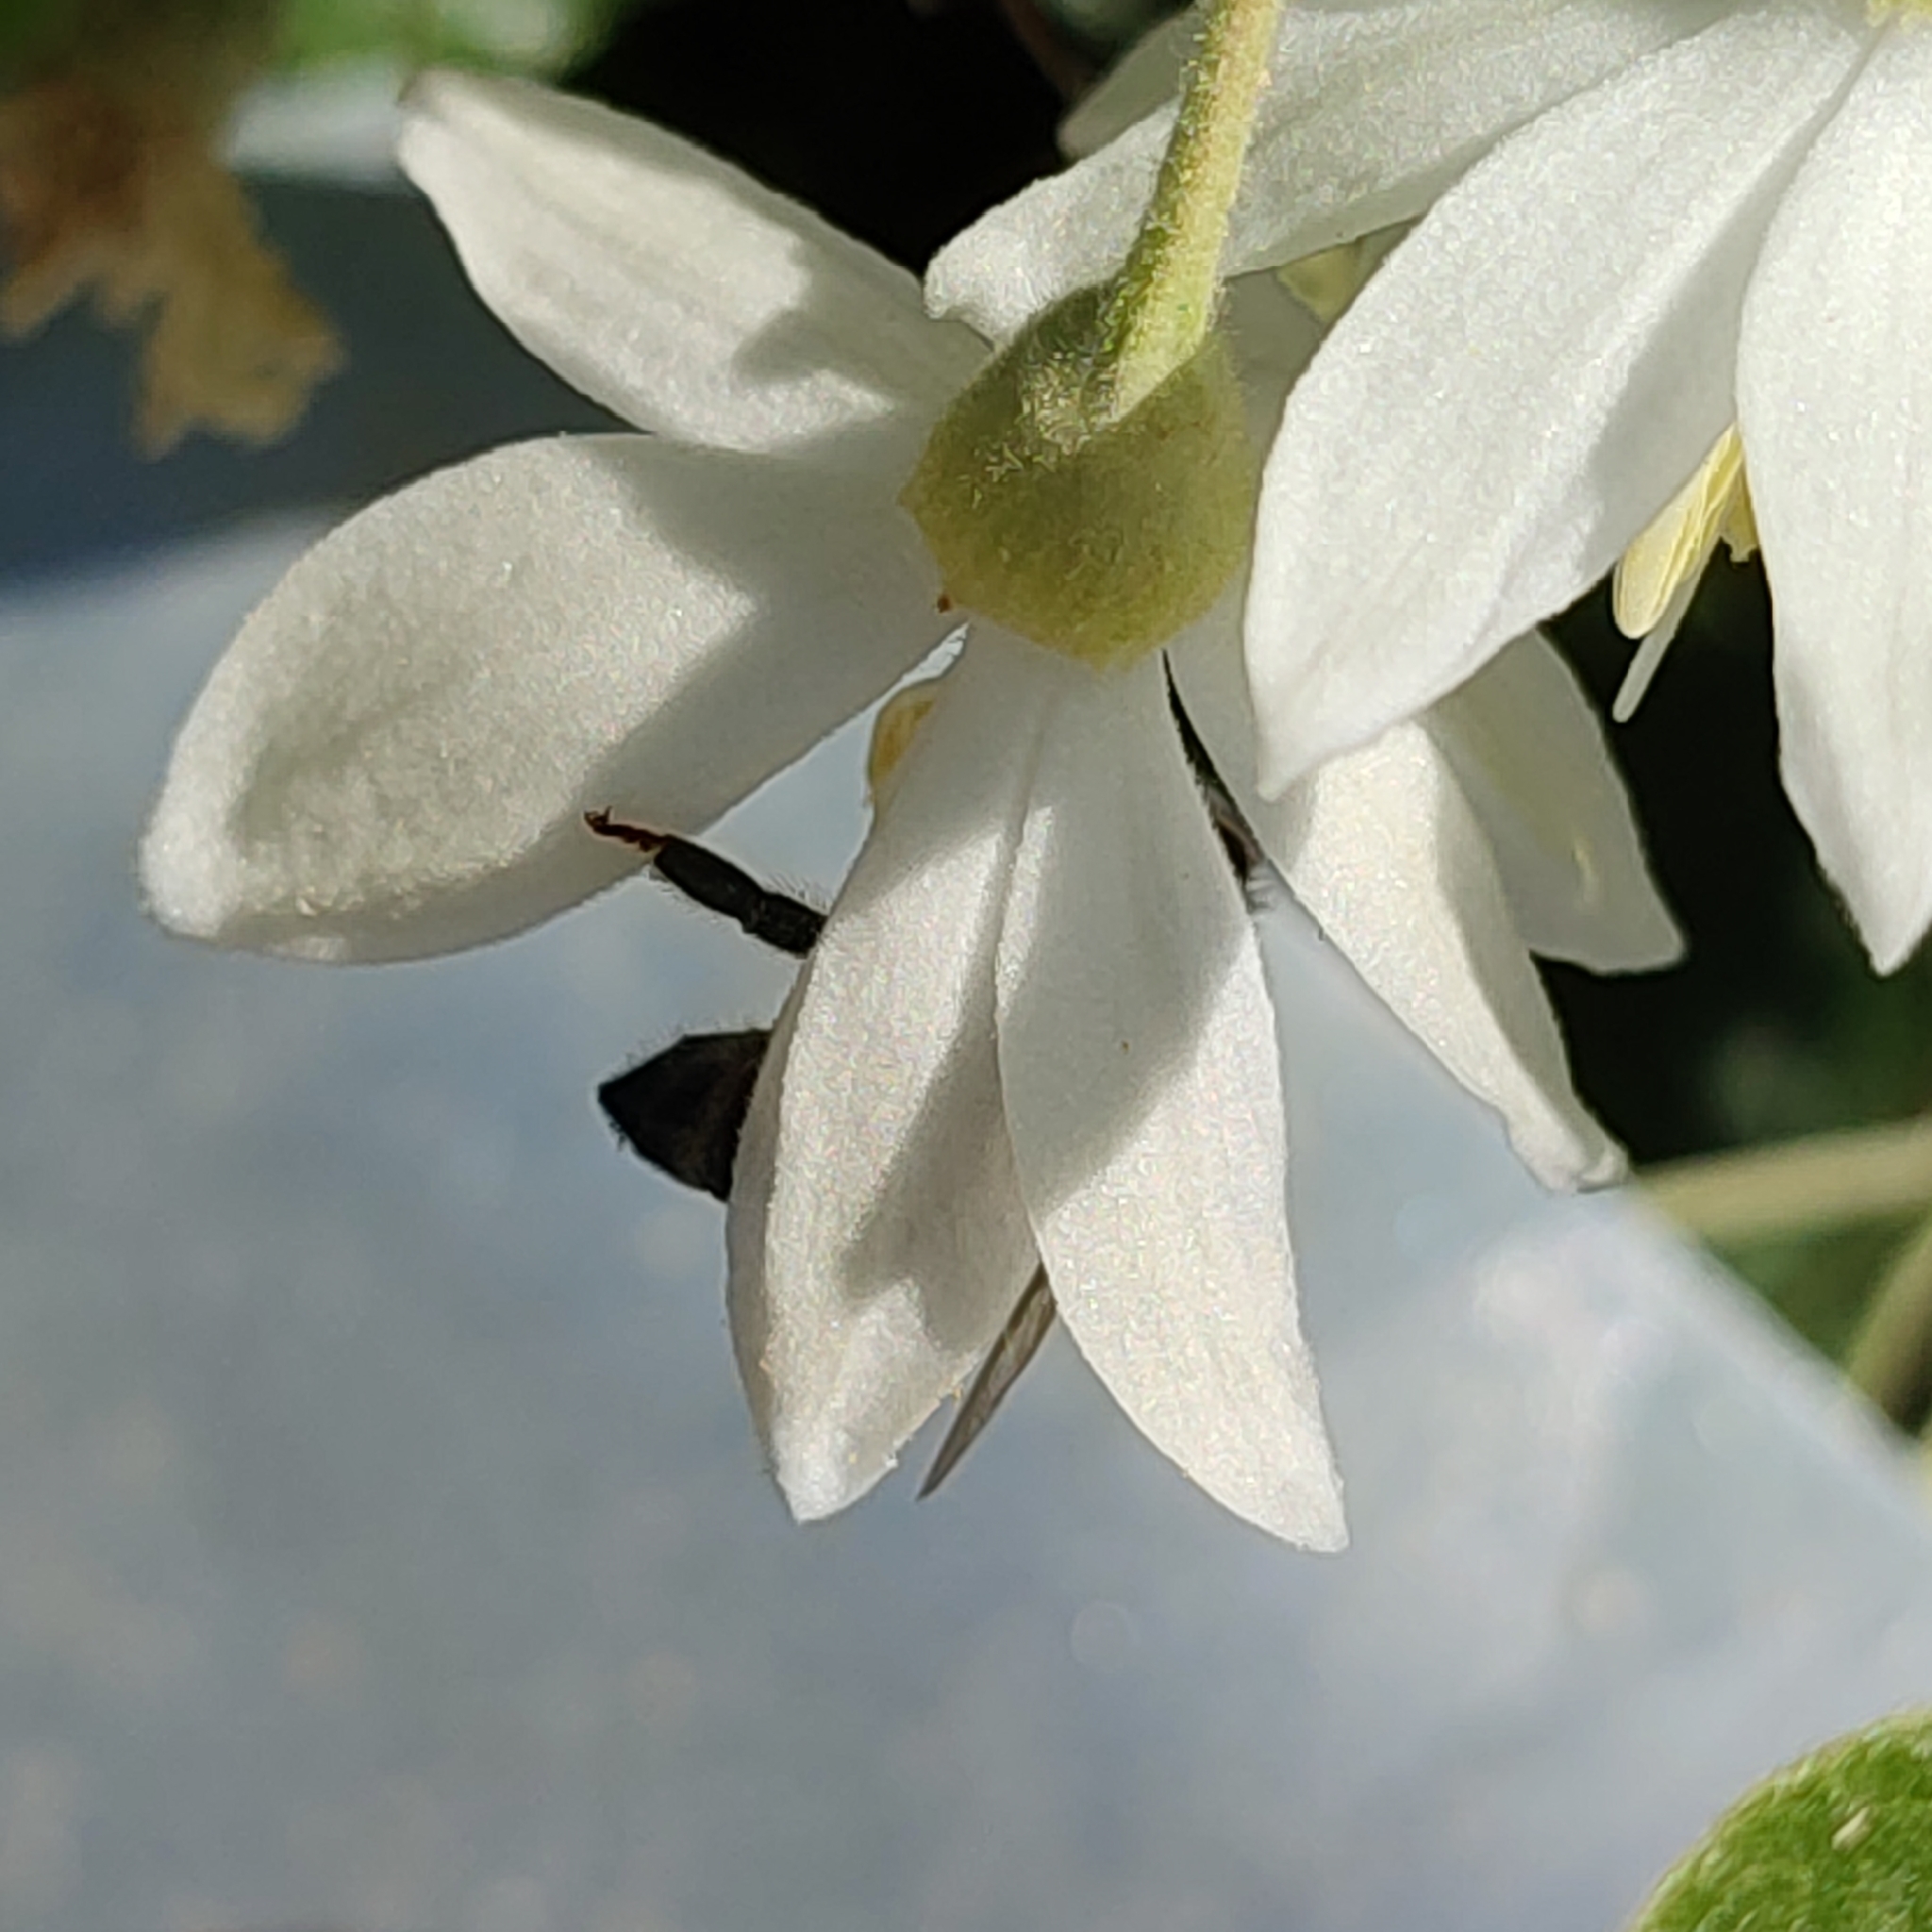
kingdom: Plantae
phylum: Tracheophyta
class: Magnoliopsida
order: Ericales
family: Styracaceae
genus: Styrax
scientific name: Styrax officinalis
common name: Storax
